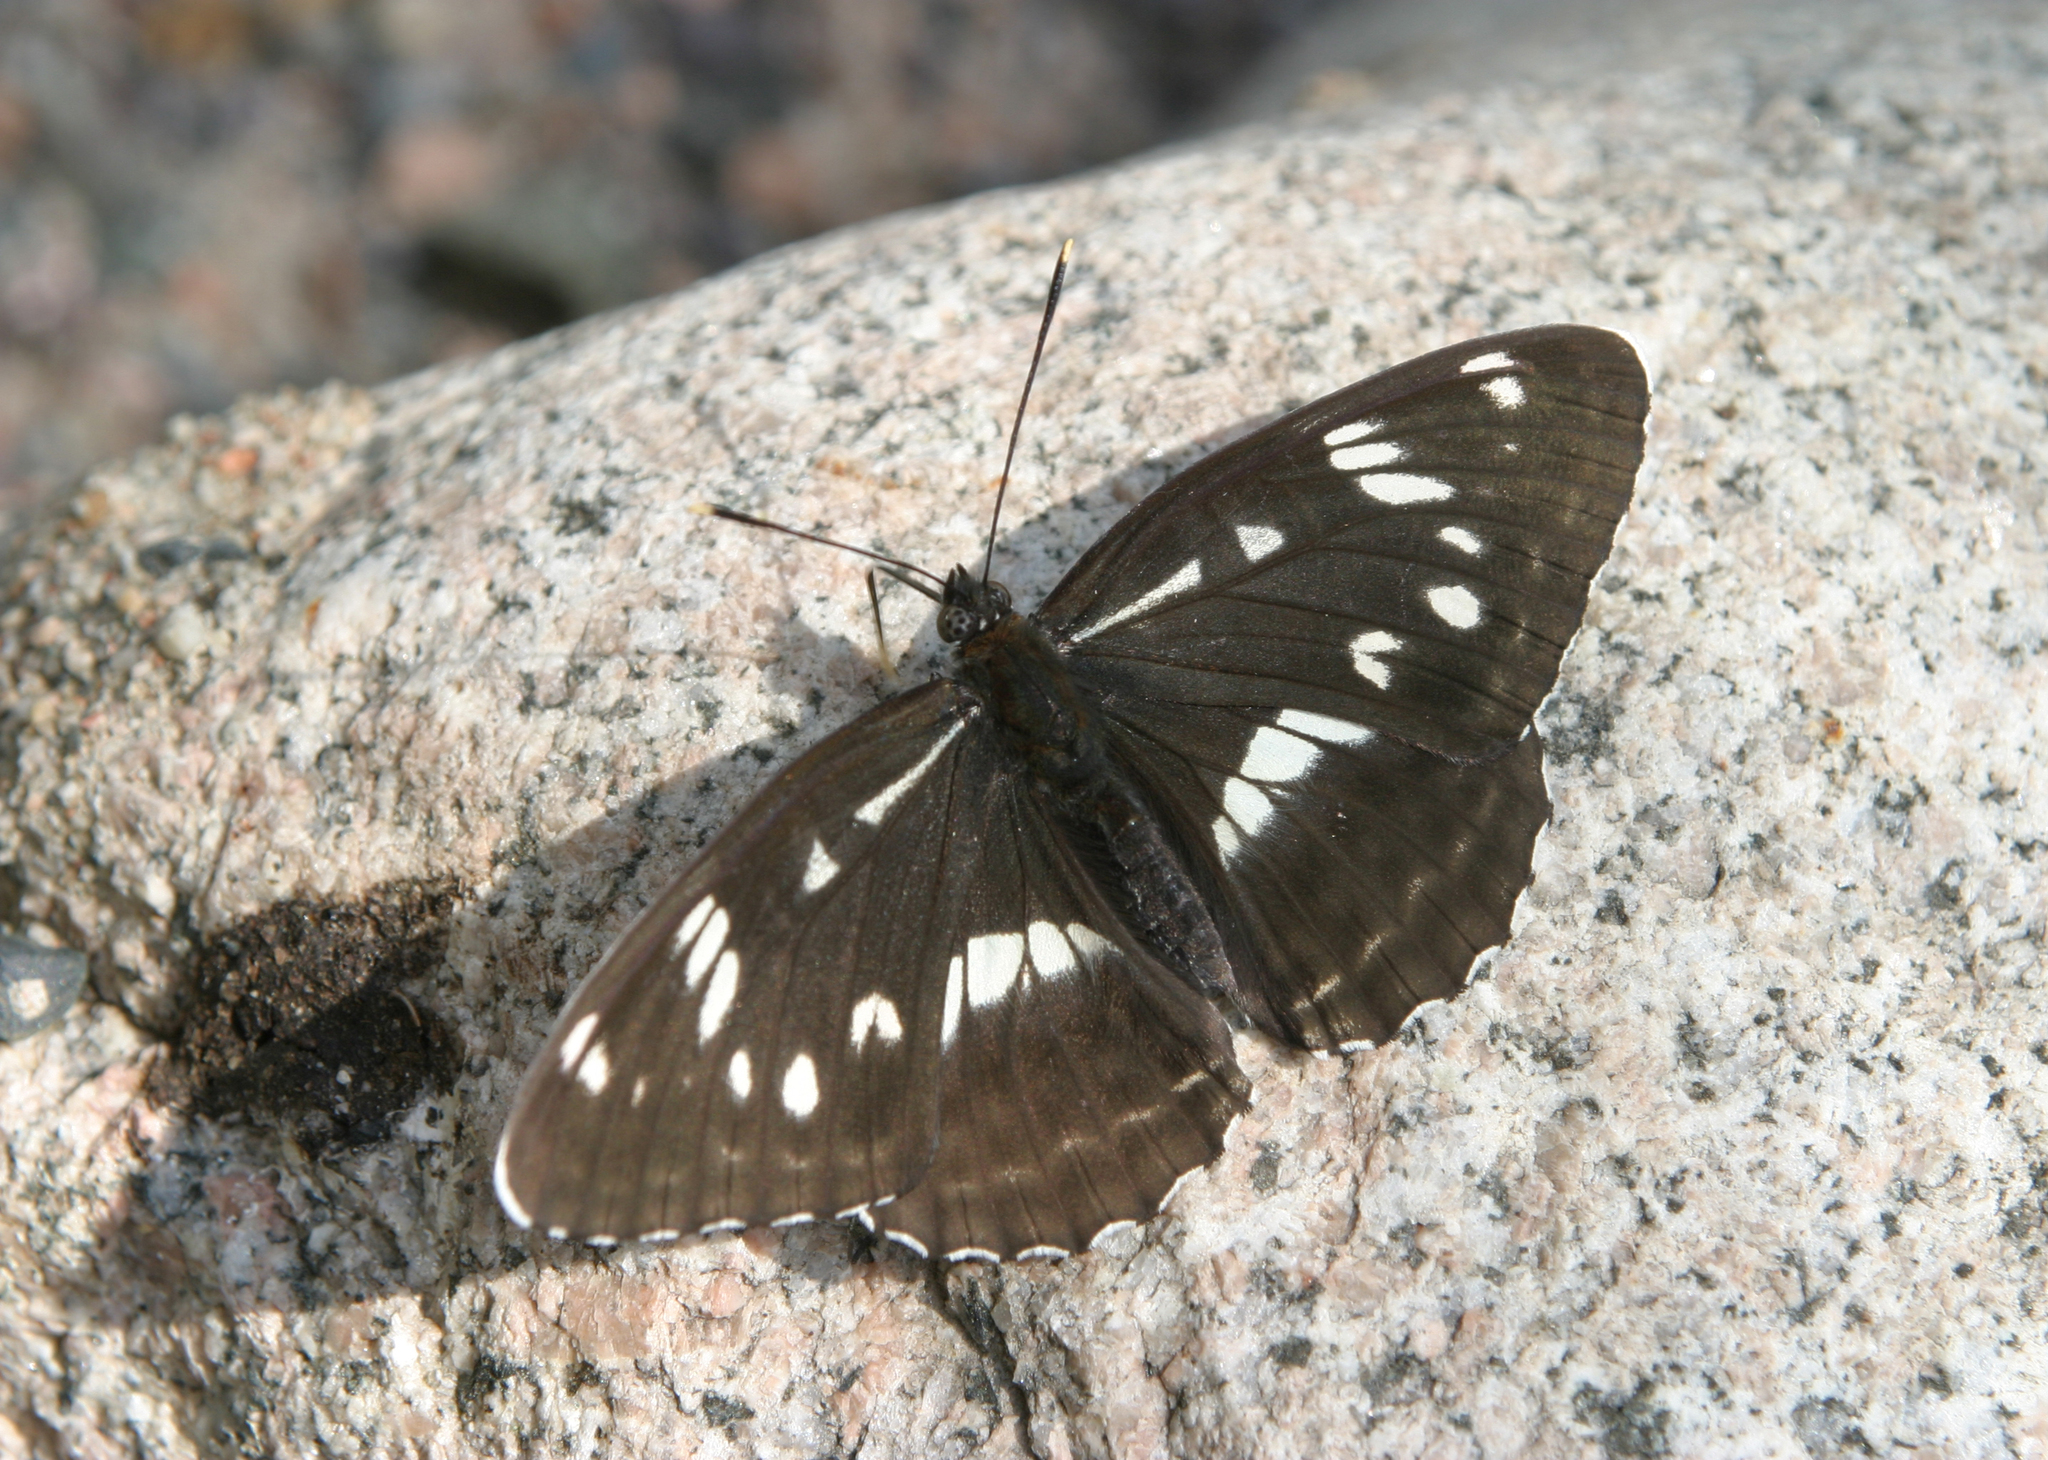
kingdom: Animalia
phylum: Arthropoda
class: Insecta
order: Lepidoptera
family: Nymphalidae
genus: Limenitis
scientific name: Limenitis helmanni
